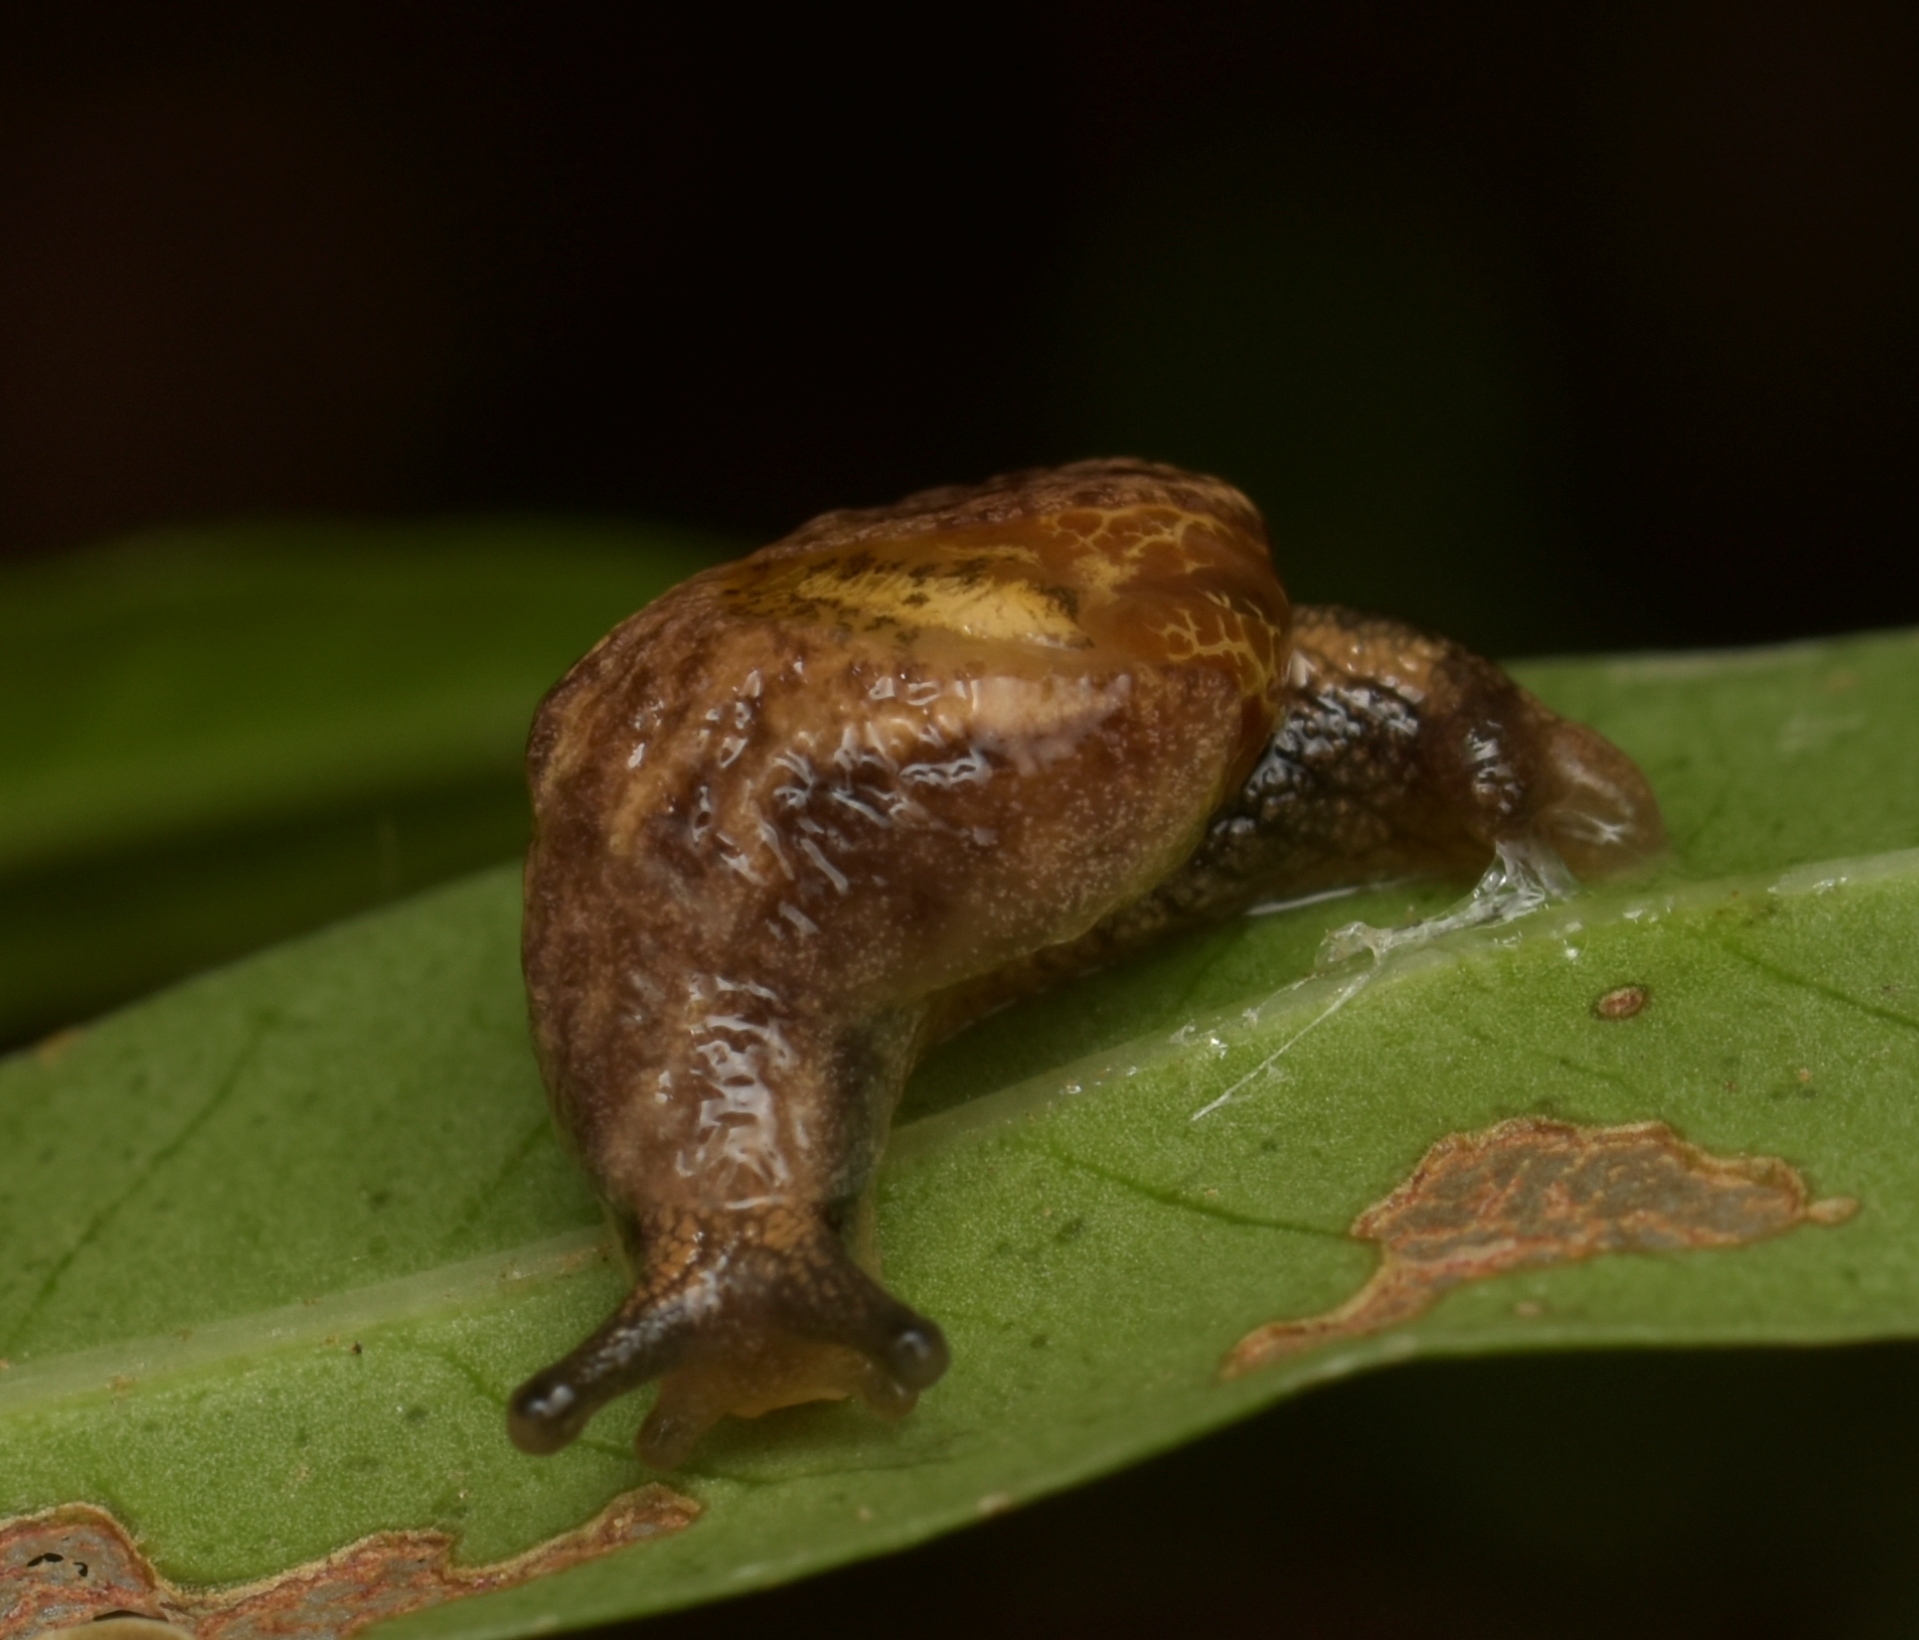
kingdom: Animalia
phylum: Mollusca
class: Gastropoda
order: Stylommatophora
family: Helicarionidae
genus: Ubiquitarion
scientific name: Ubiquitarion iridis
